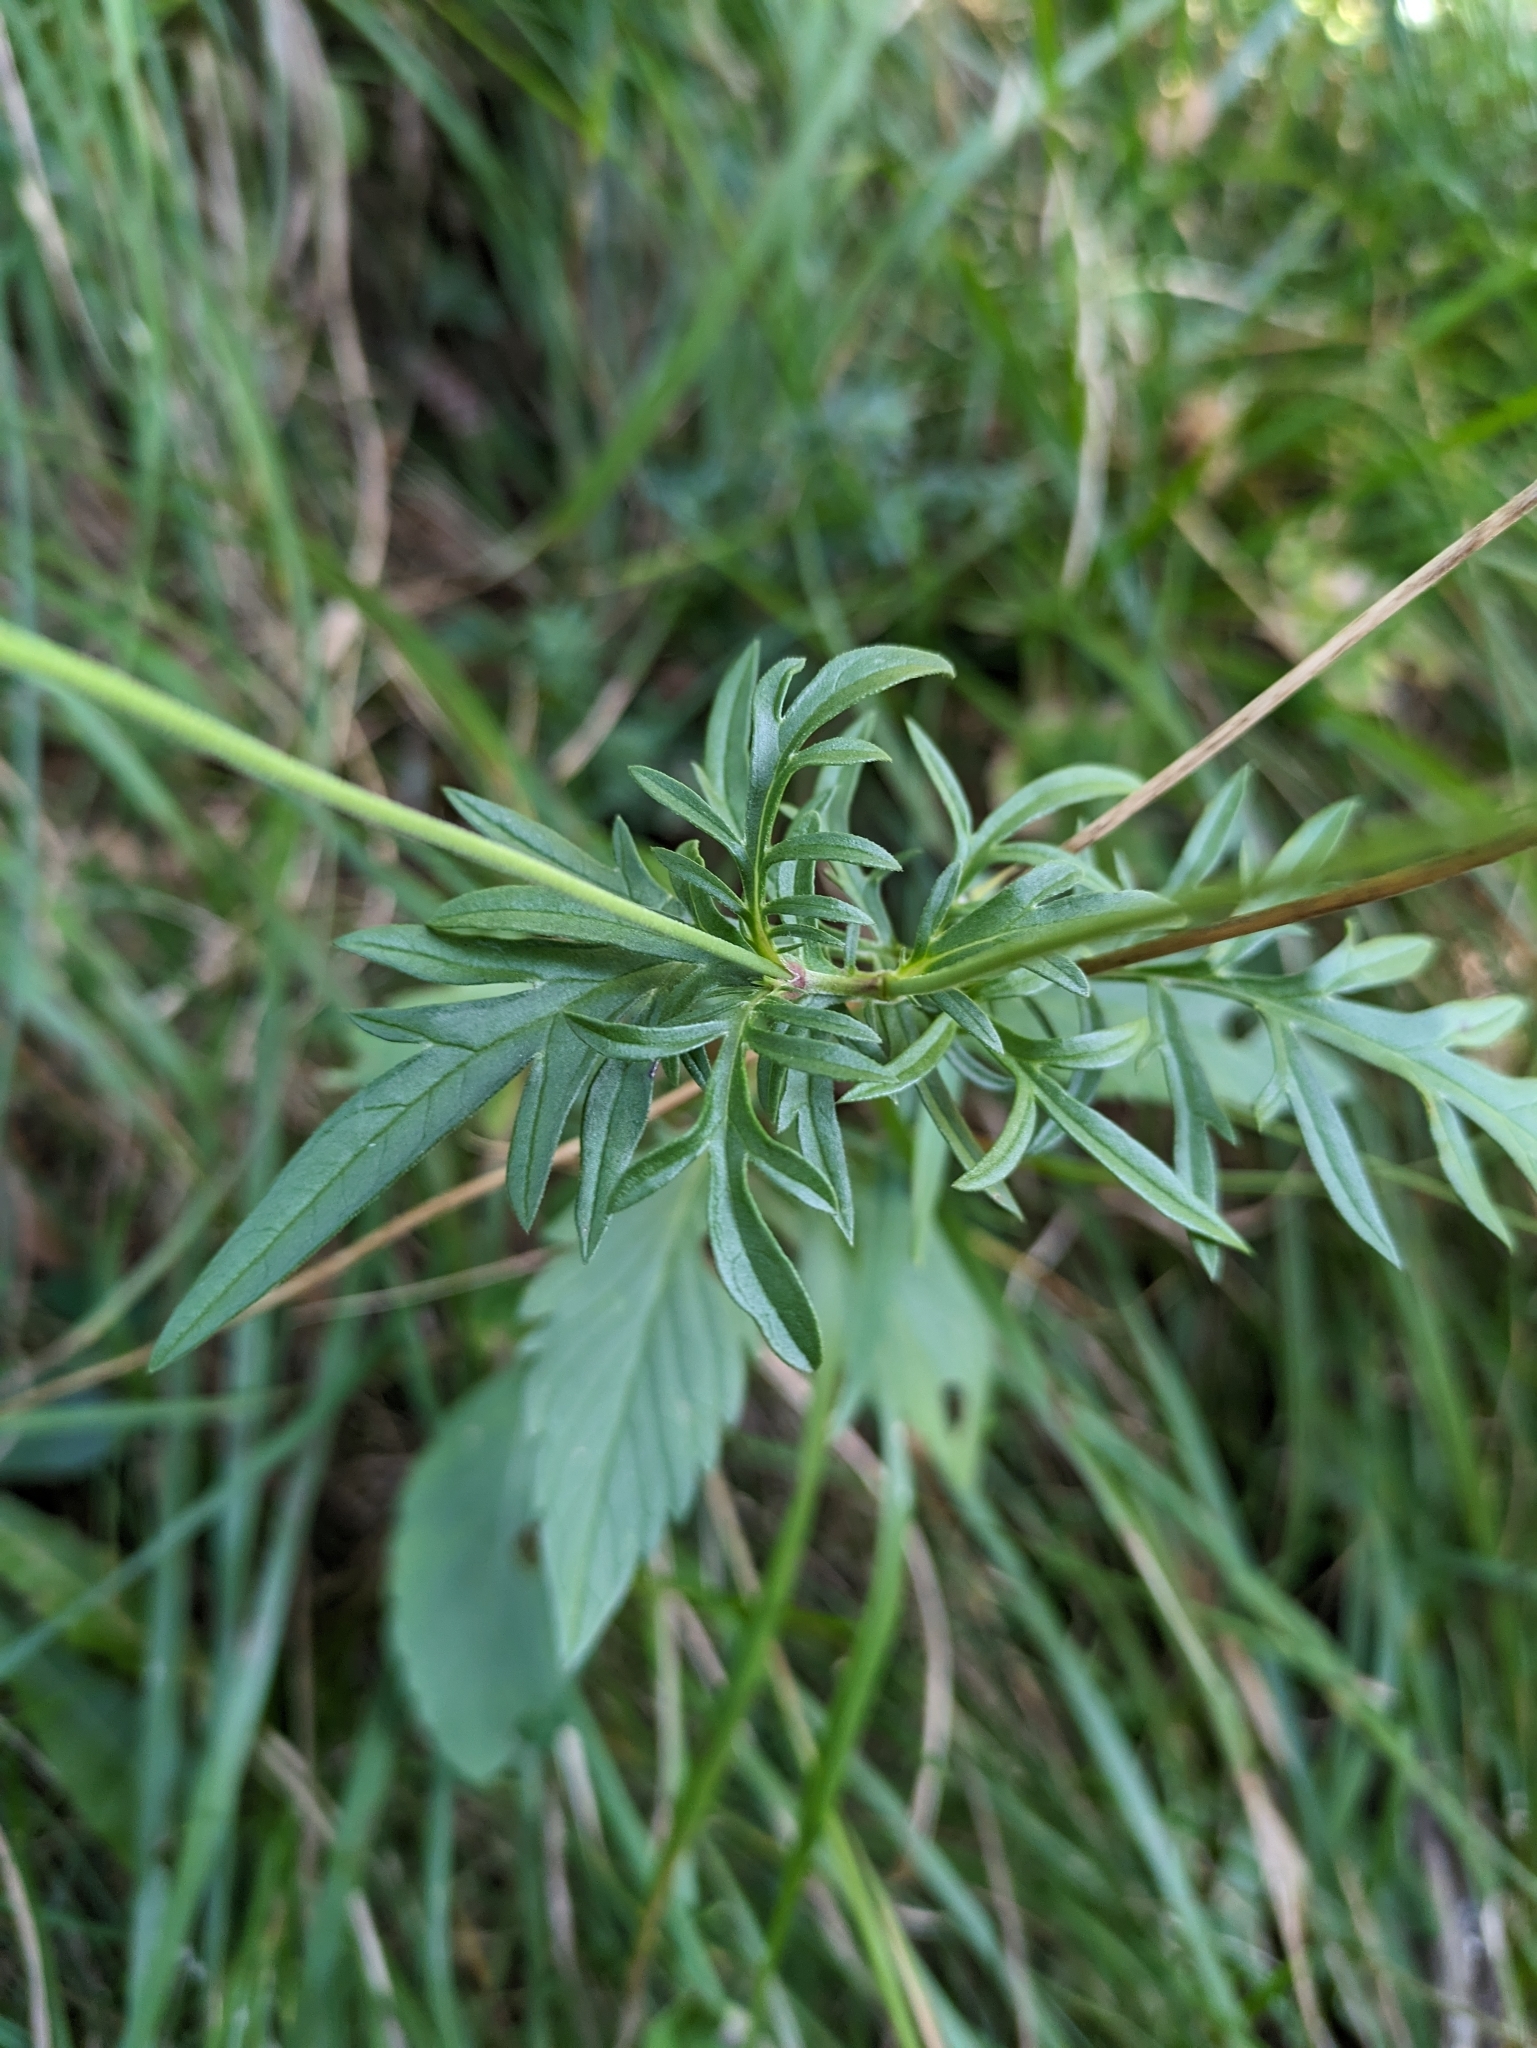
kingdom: Plantae
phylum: Tracheophyta
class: Magnoliopsida
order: Dipsacales
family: Caprifoliaceae
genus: Scabiosa
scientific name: Scabiosa lucida
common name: Shining scabious
